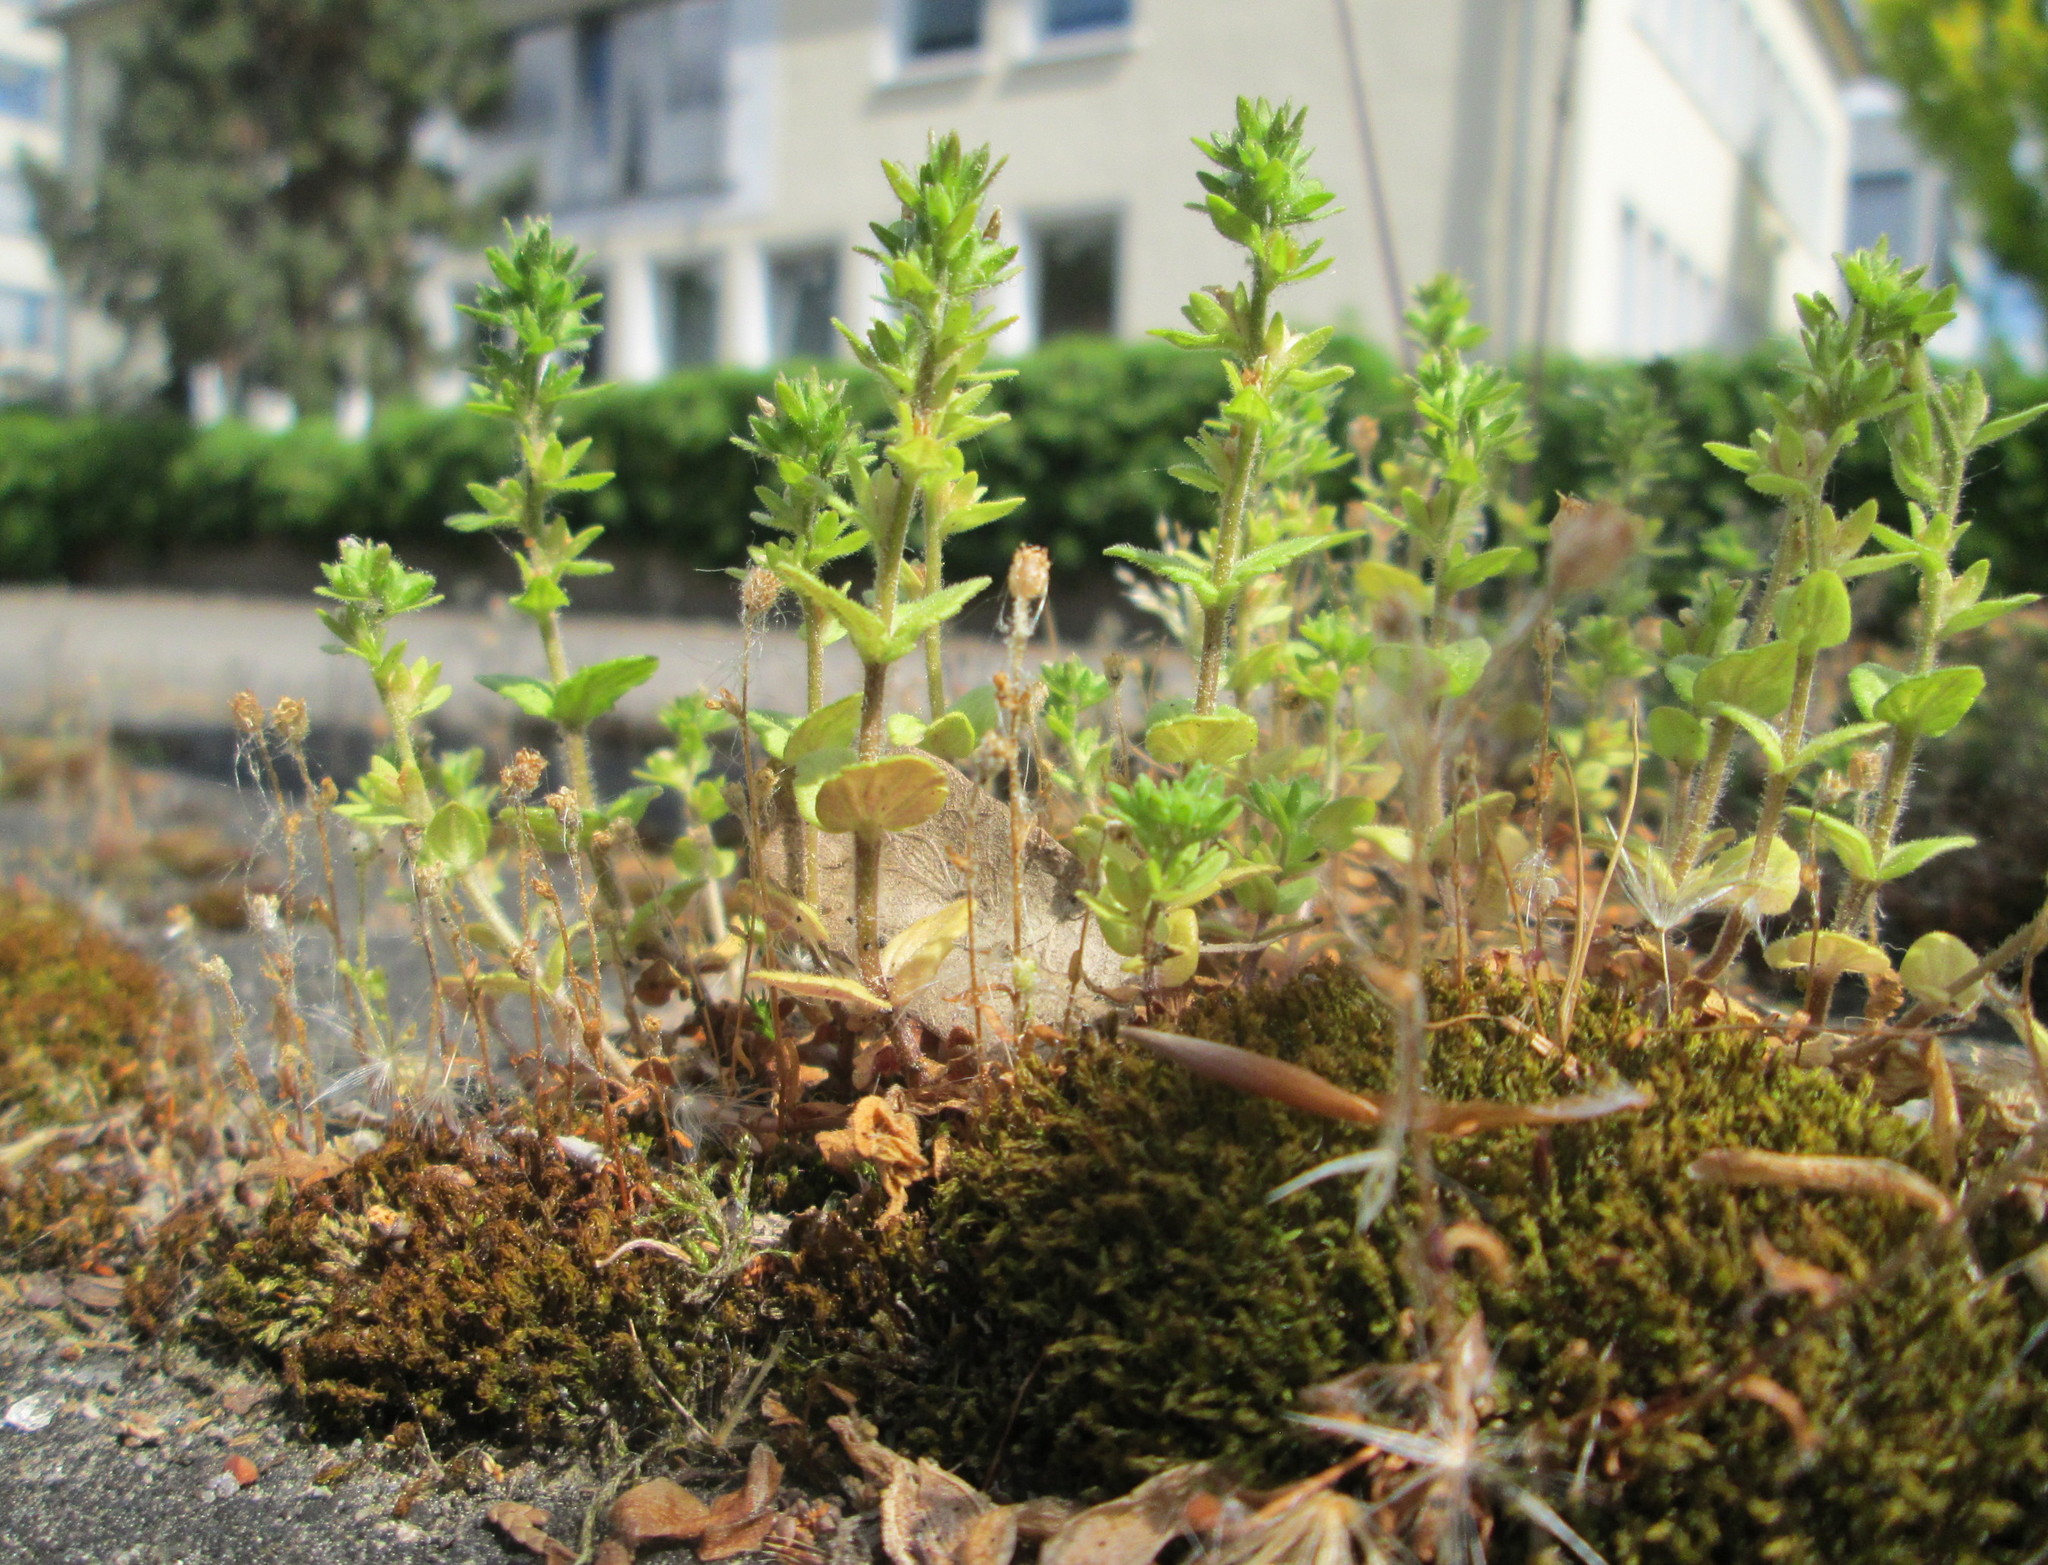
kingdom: Plantae
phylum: Tracheophyta
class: Magnoliopsida
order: Lamiales
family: Plantaginaceae
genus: Veronica
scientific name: Veronica arvensis
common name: Corn speedwell
